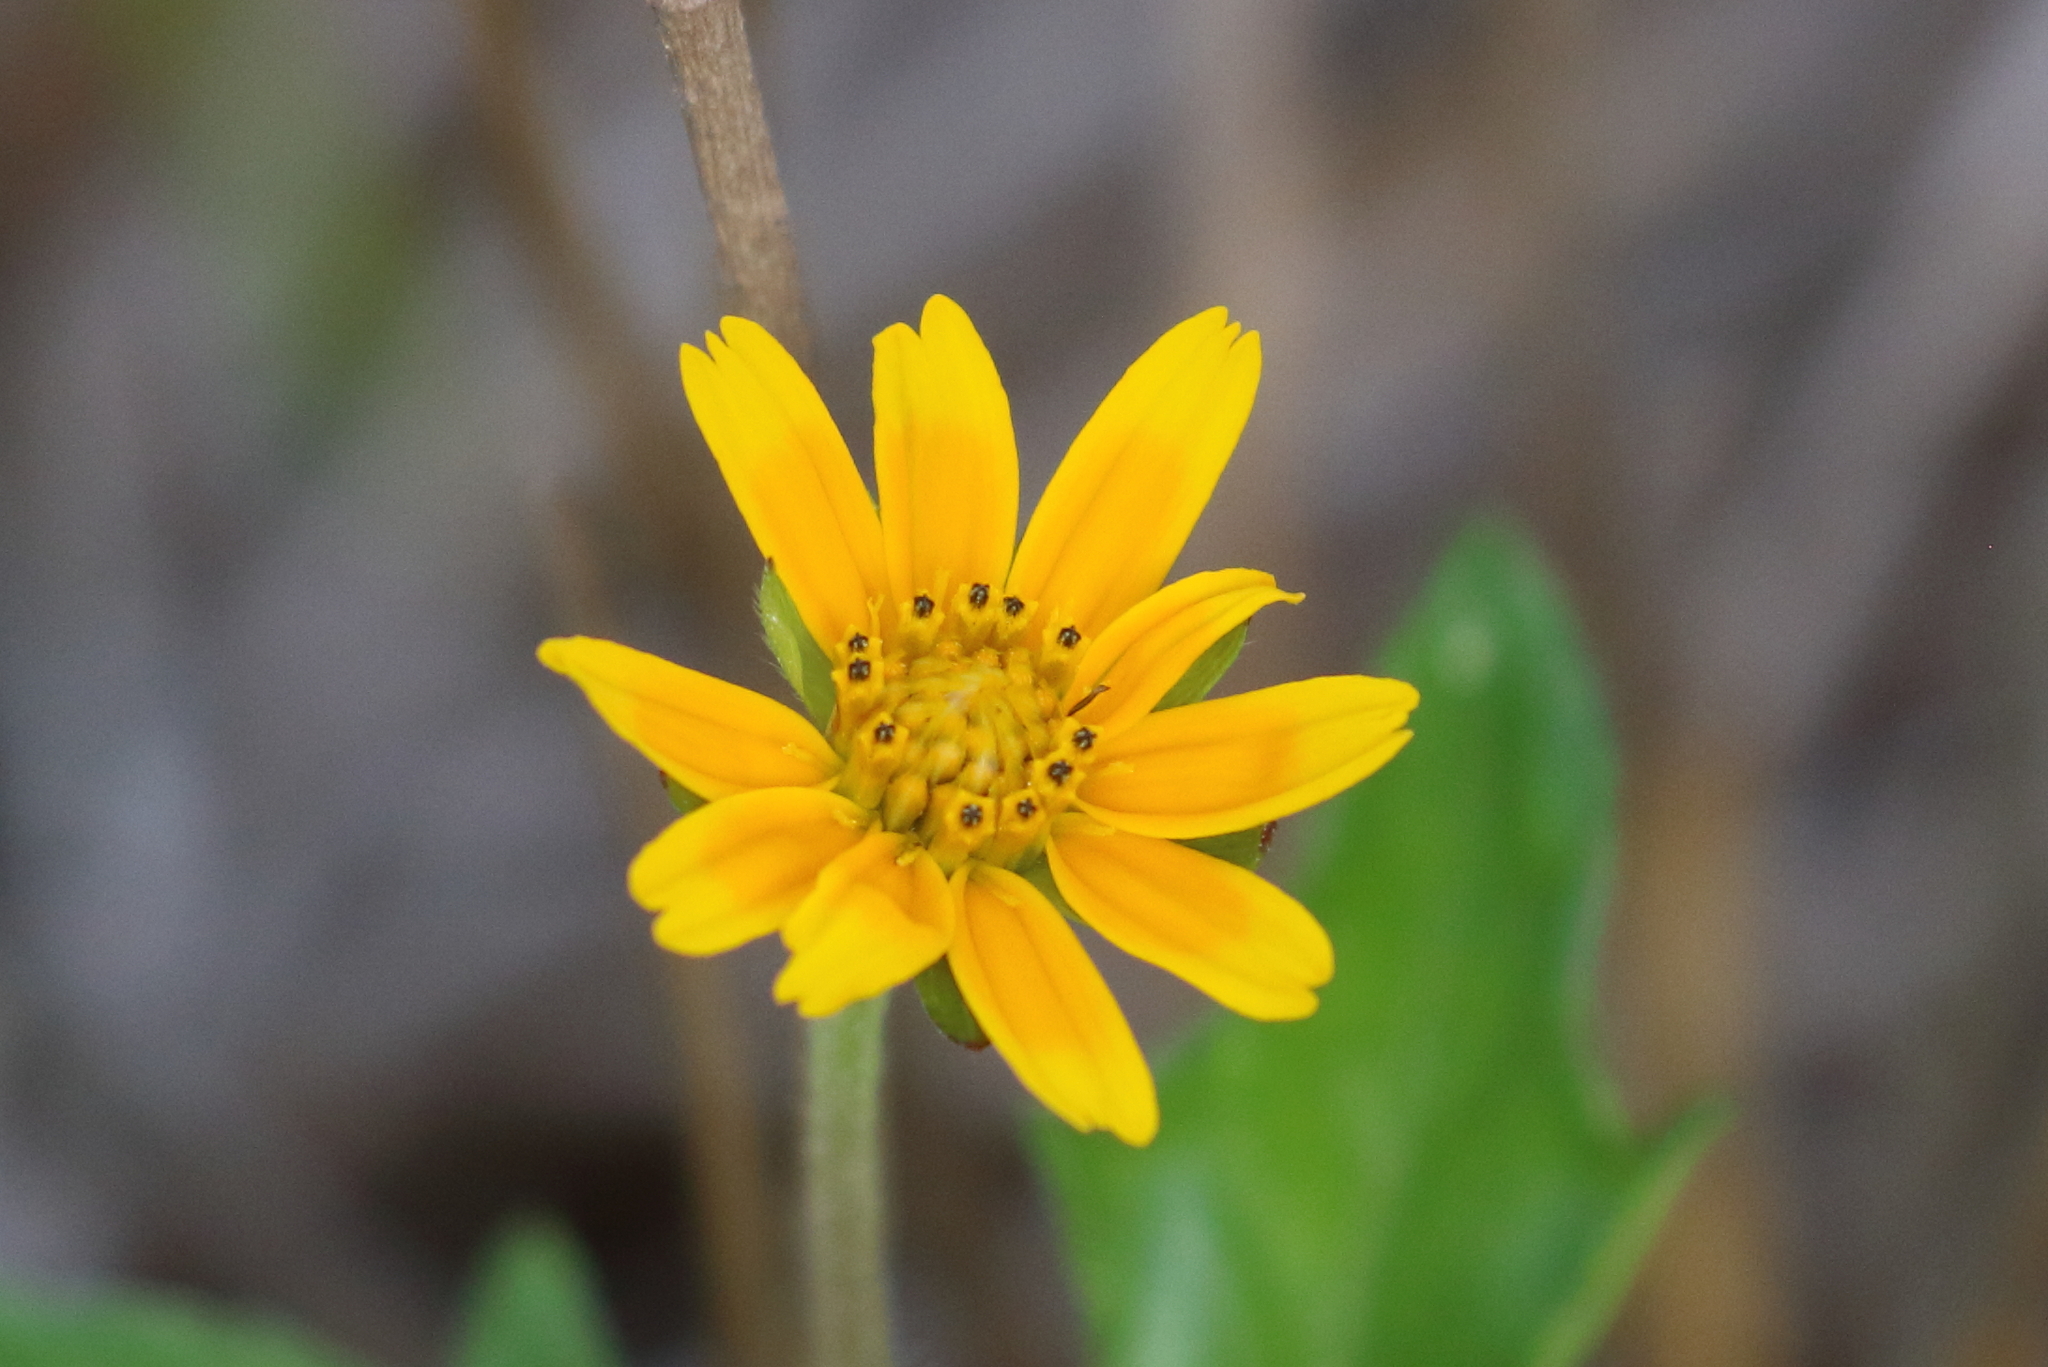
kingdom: Plantae
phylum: Tracheophyta
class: Magnoliopsida
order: Asterales
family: Asteraceae
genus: Sphagneticola
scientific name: Sphagneticola trilobata
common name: Bay biscayne creeping-oxeye
